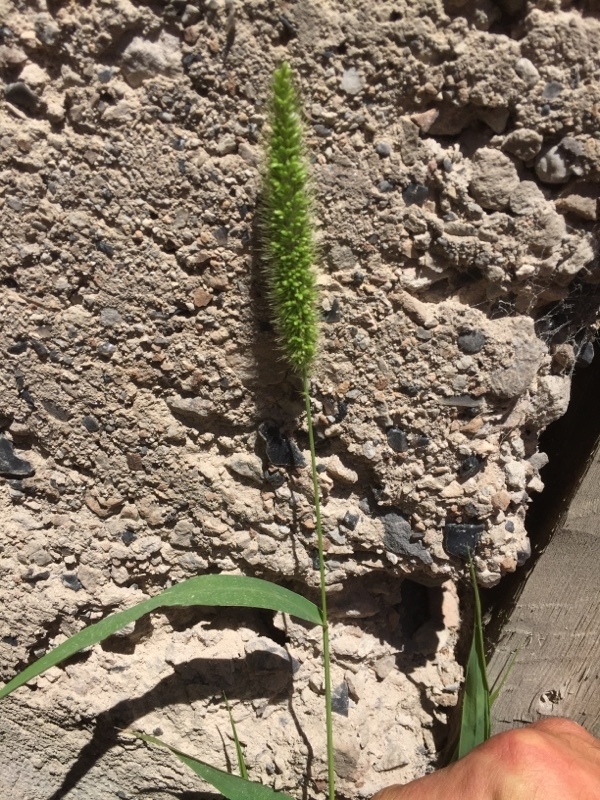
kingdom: Plantae
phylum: Tracheophyta
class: Liliopsida
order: Poales
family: Poaceae
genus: Setaria
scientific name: Setaria viridis
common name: Green bristlegrass
